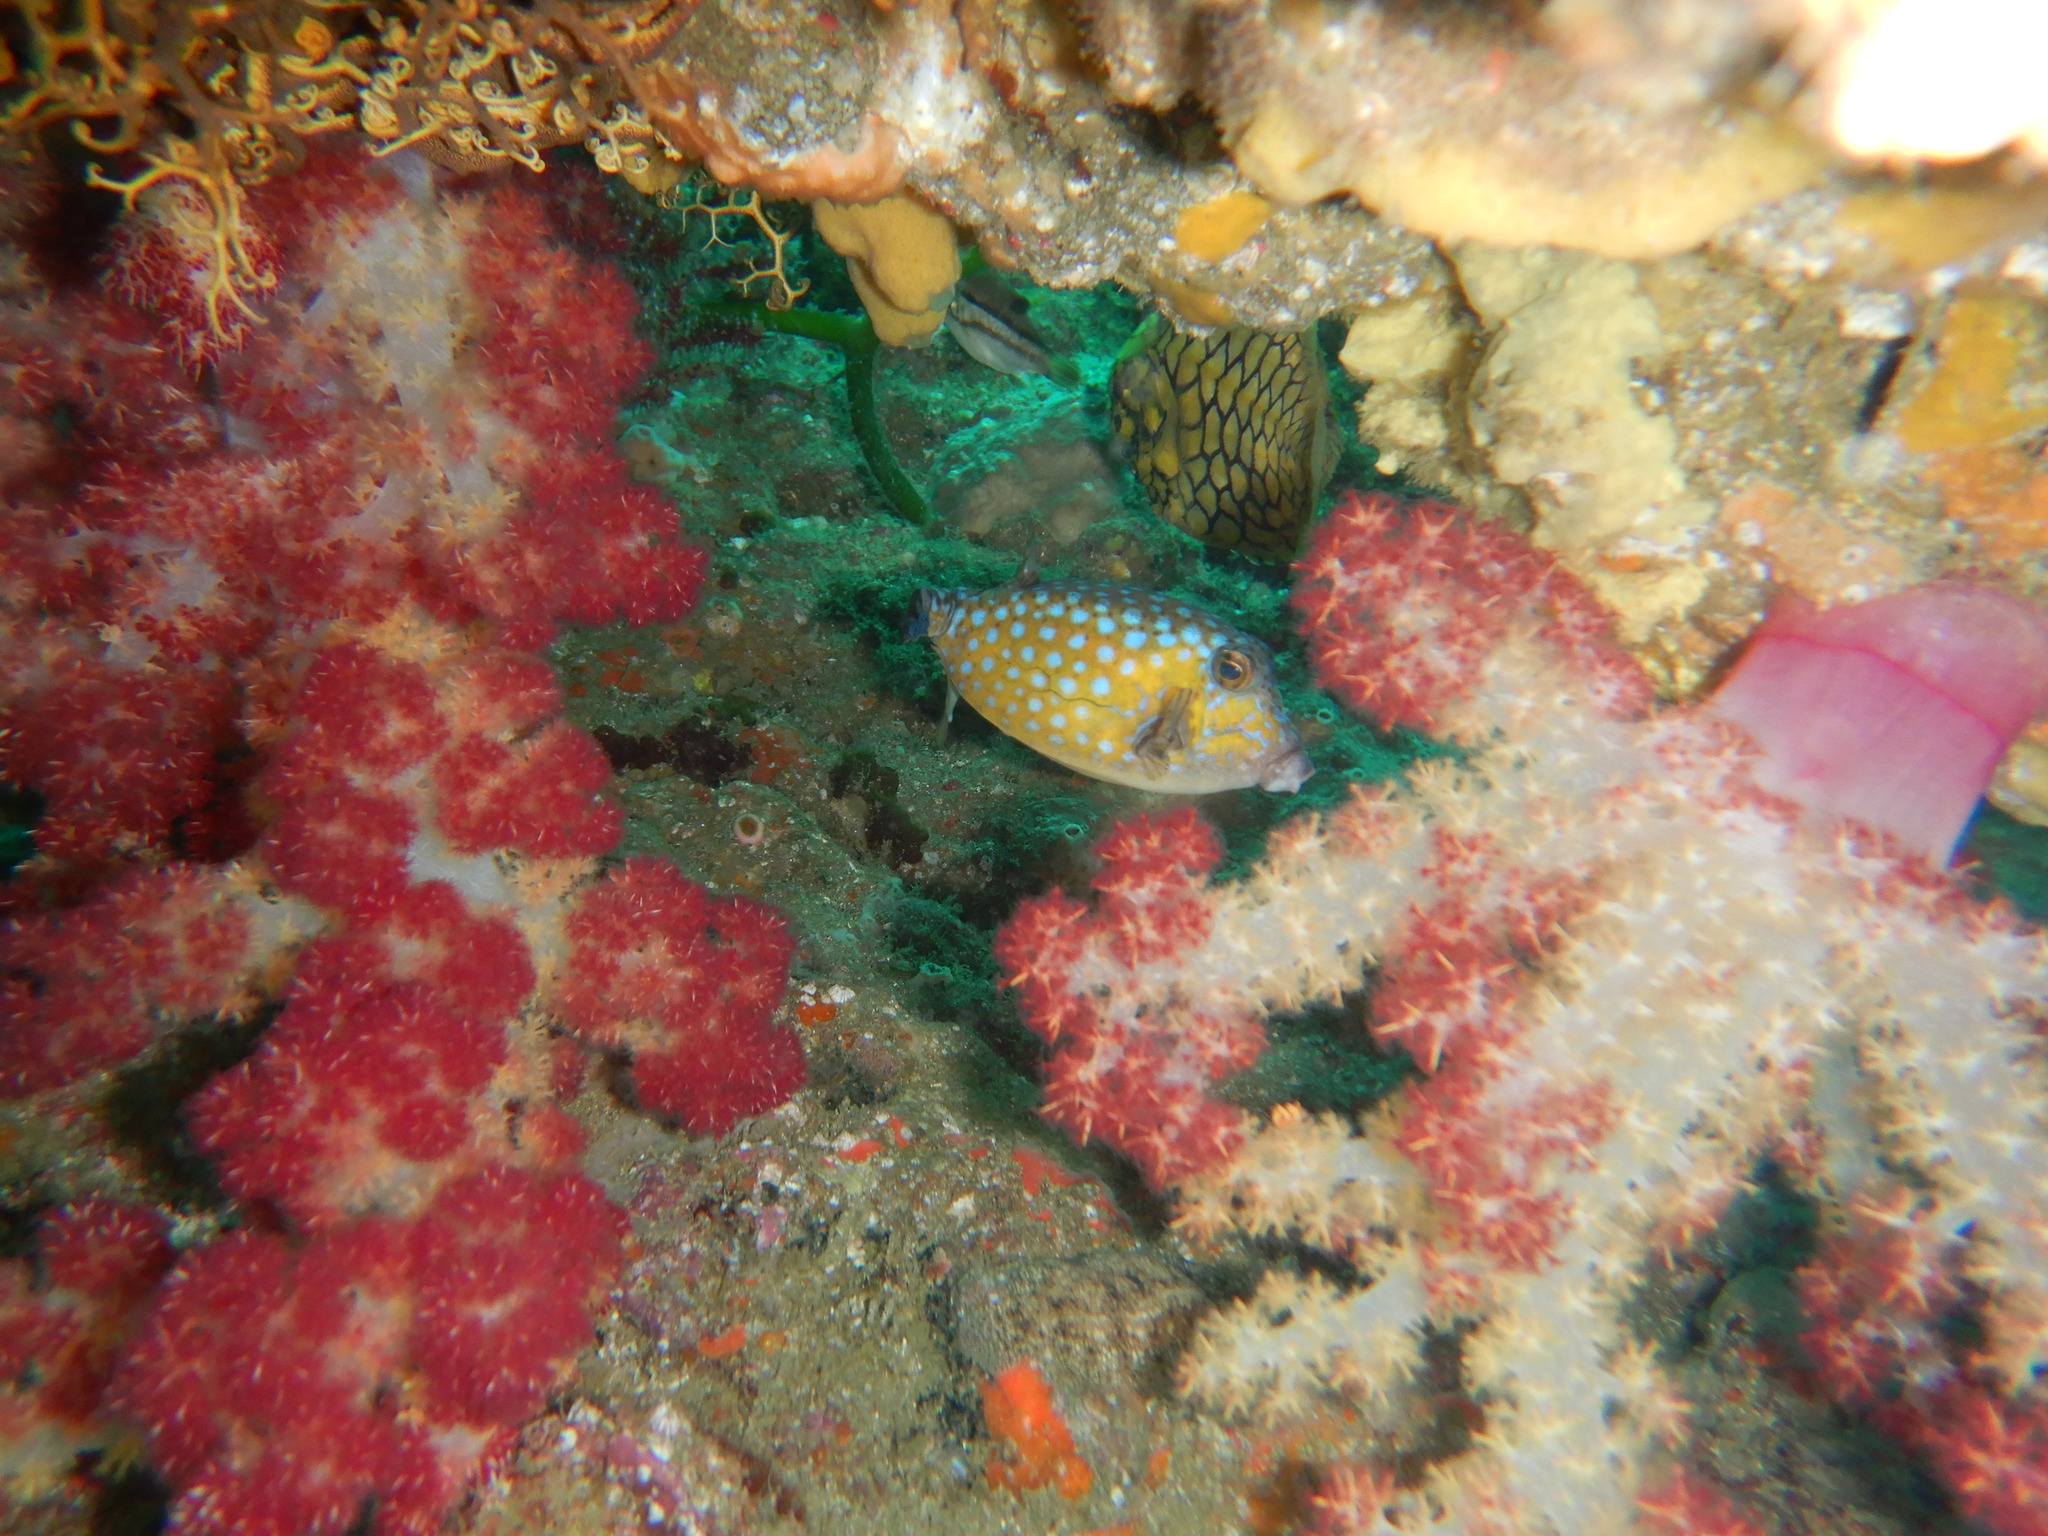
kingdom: Animalia
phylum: Chordata
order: Tetraodontiformes
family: Ostraciidae
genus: Ostracion
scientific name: Ostracion immaculatus
